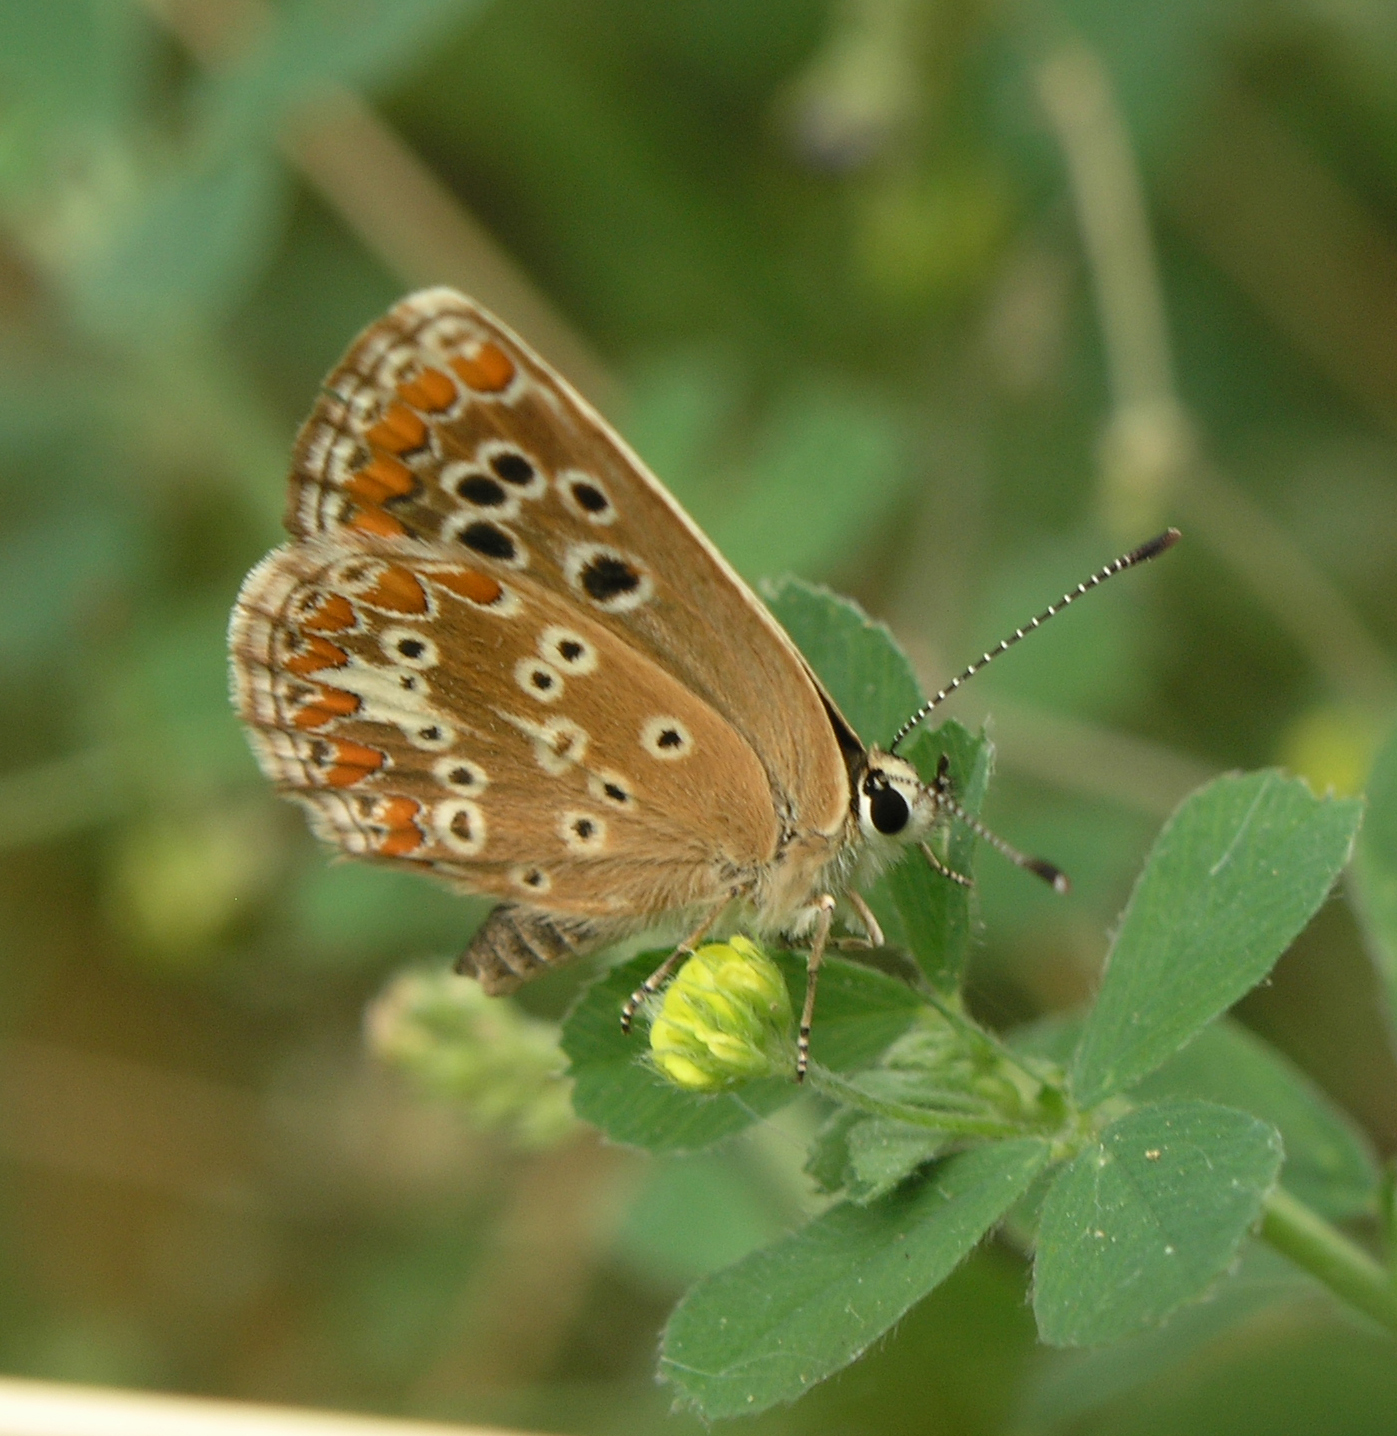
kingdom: Animalia
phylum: Arthropoda
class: Insecta
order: Lepidoptera
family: Lycaenidae
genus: Aricia
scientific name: Aricia cramera
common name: Eschscholtz´s brown  argus
